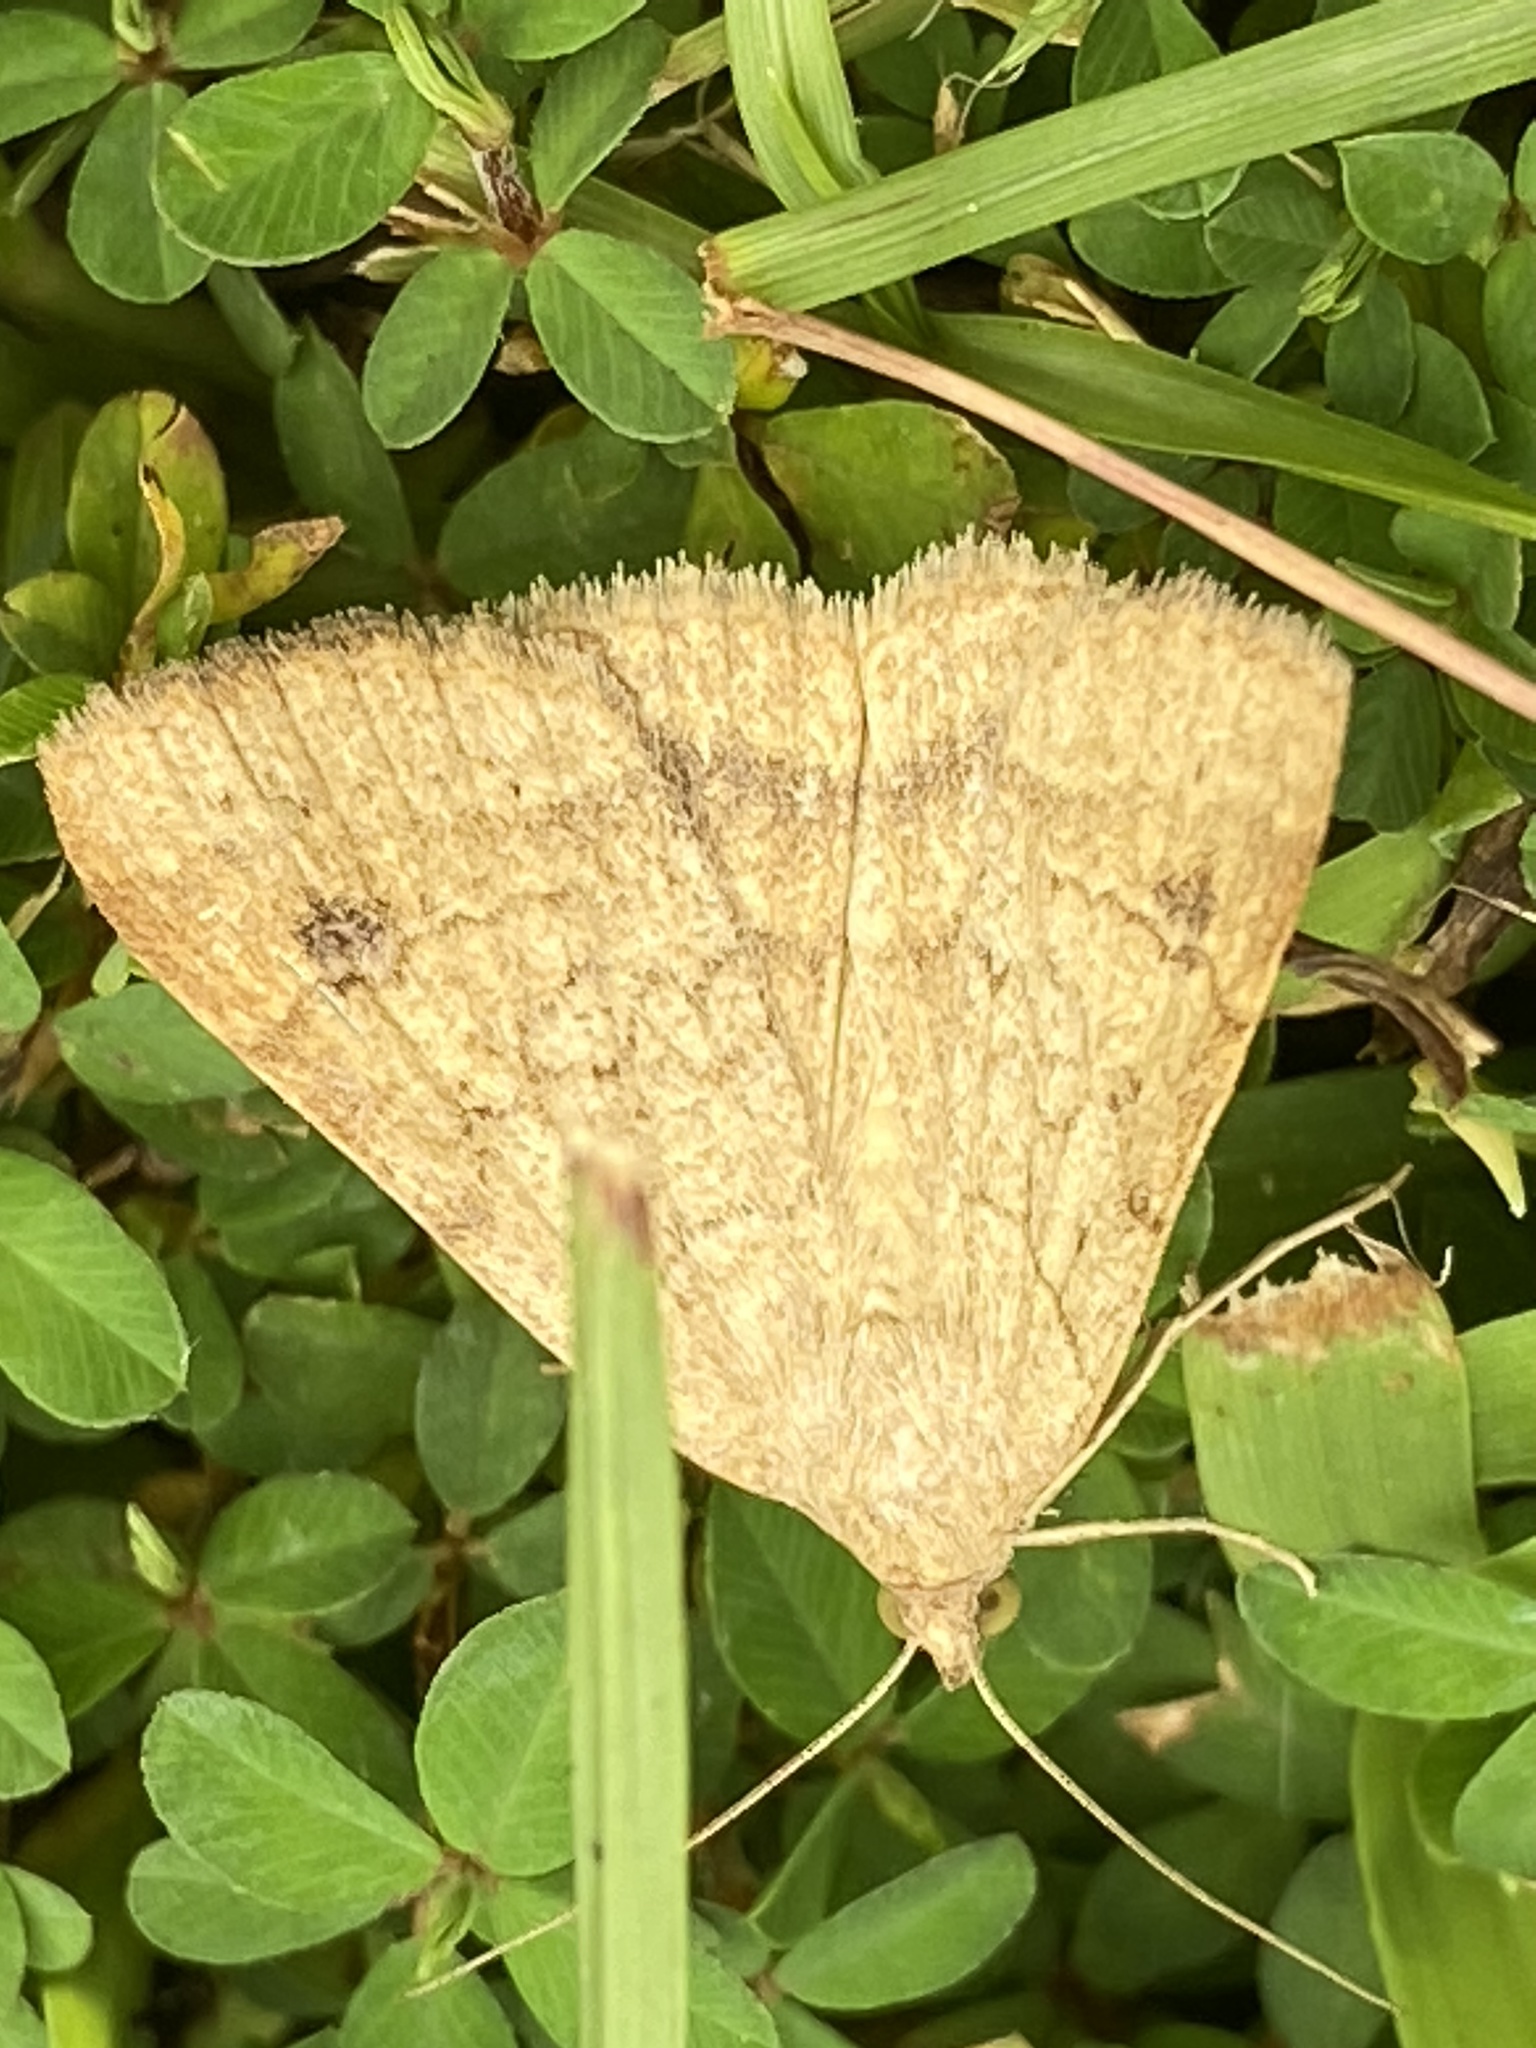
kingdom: Animalia
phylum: Arthropoda
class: Insecta
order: Lepidoptera
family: Erebidae
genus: Caenurgia
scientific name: Caenurgia chloropha
